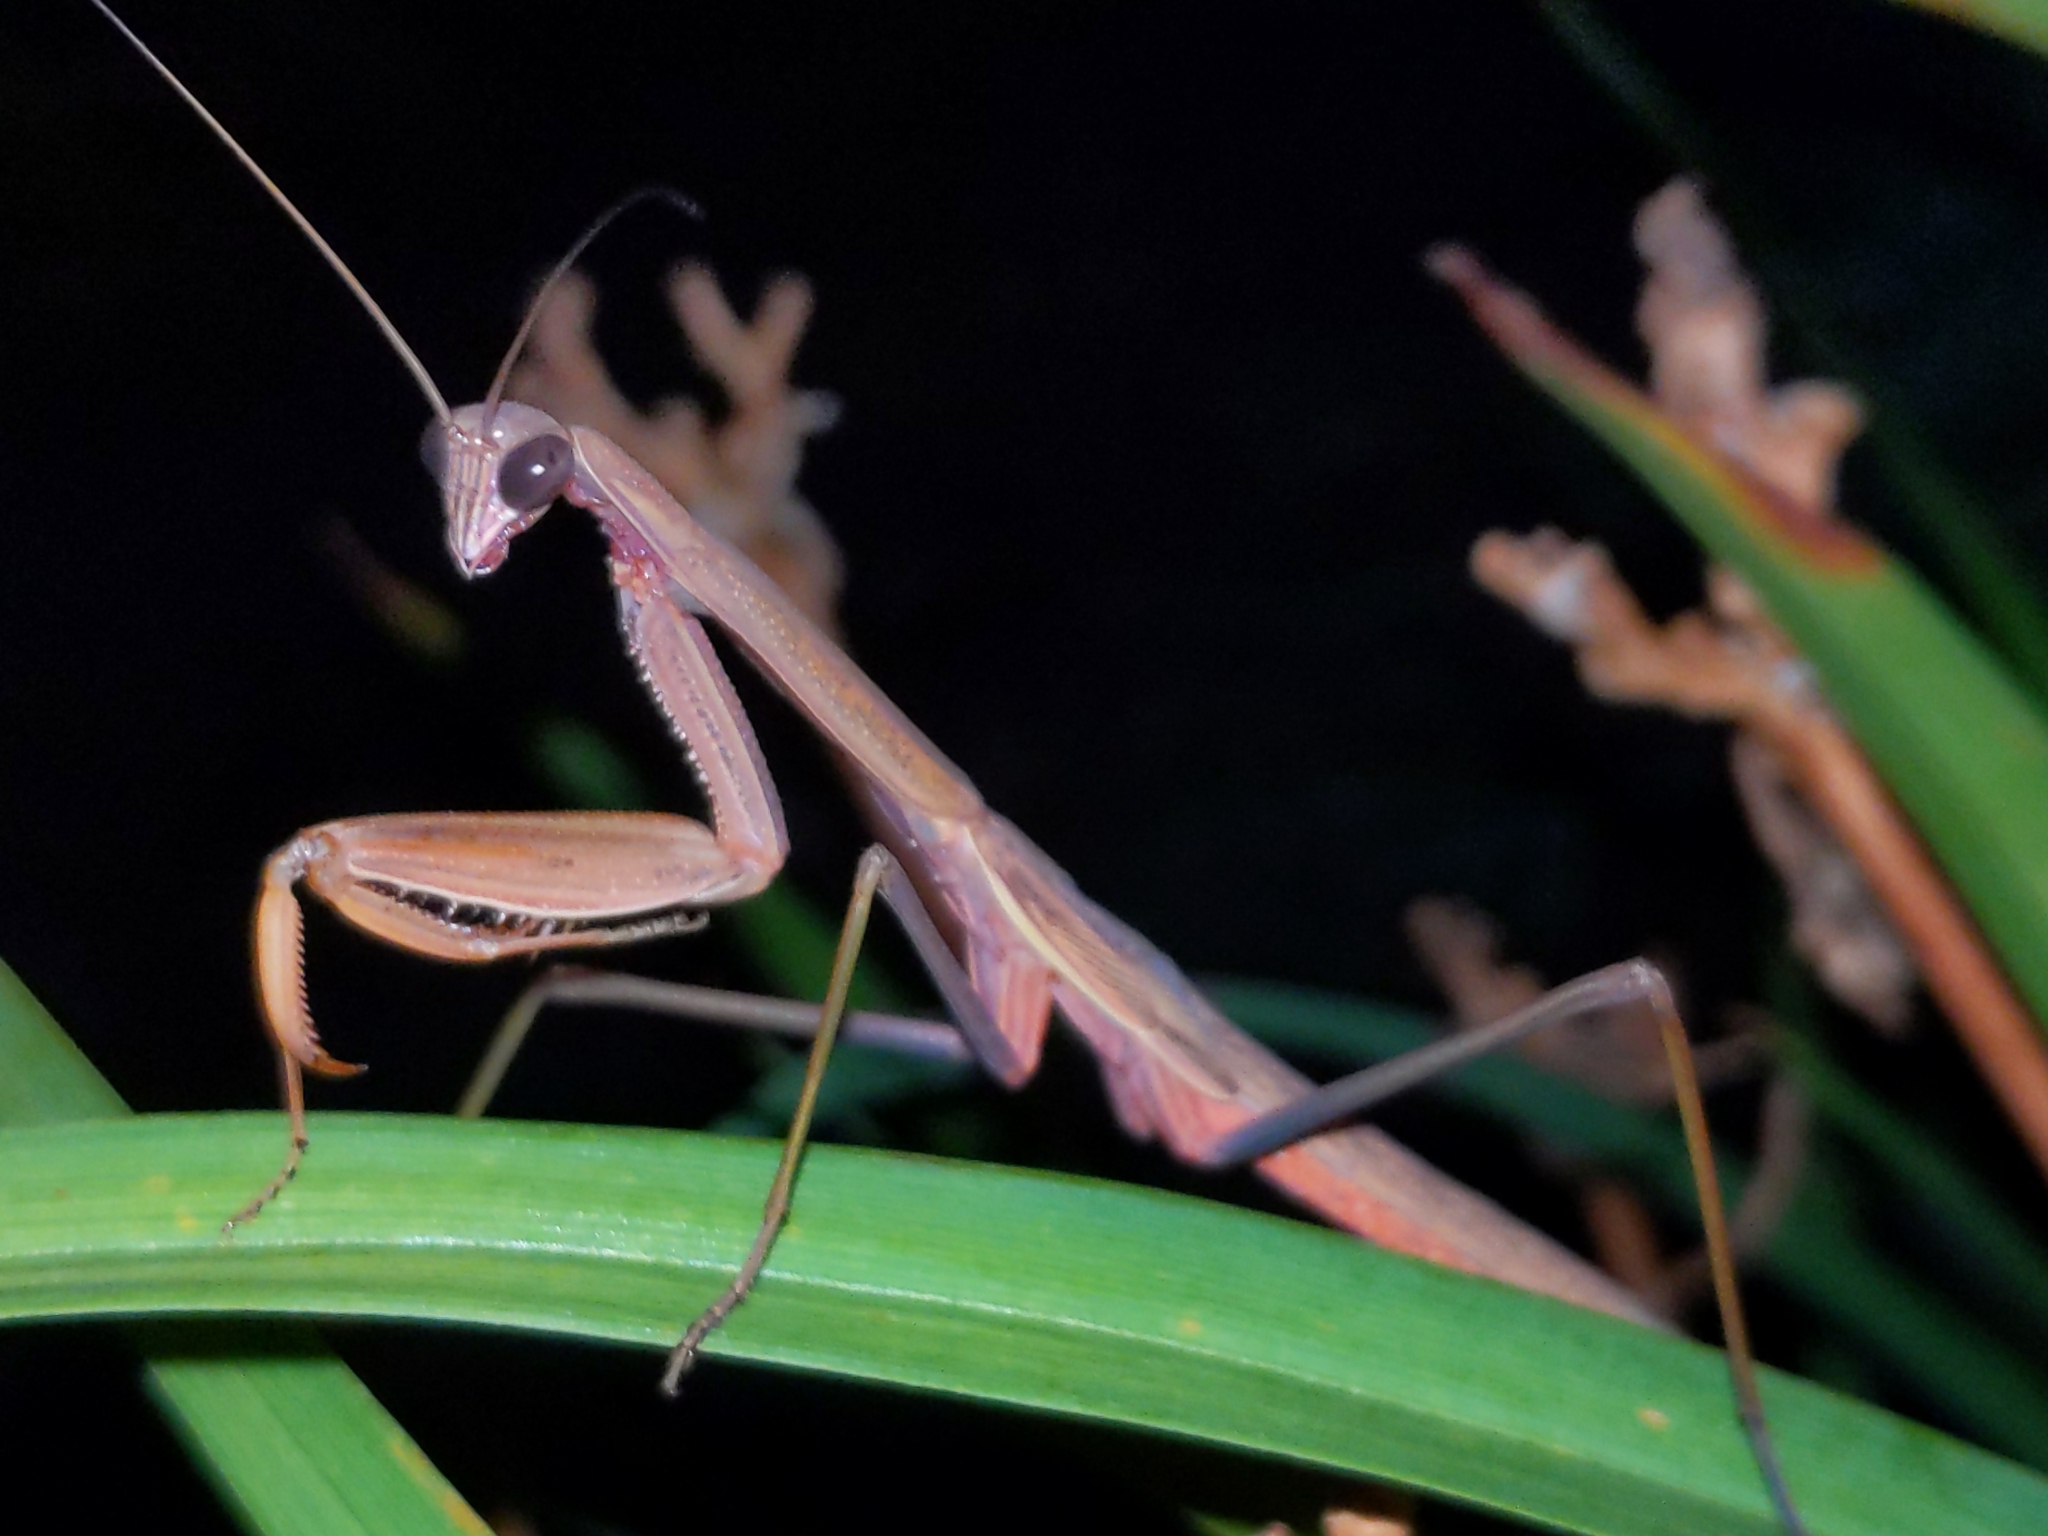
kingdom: Animalia
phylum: Arthropoda
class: Insecta
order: Mantodea
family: Mantidae
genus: Tenodera
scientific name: Tenodera sinensis
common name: Chinese mantis
